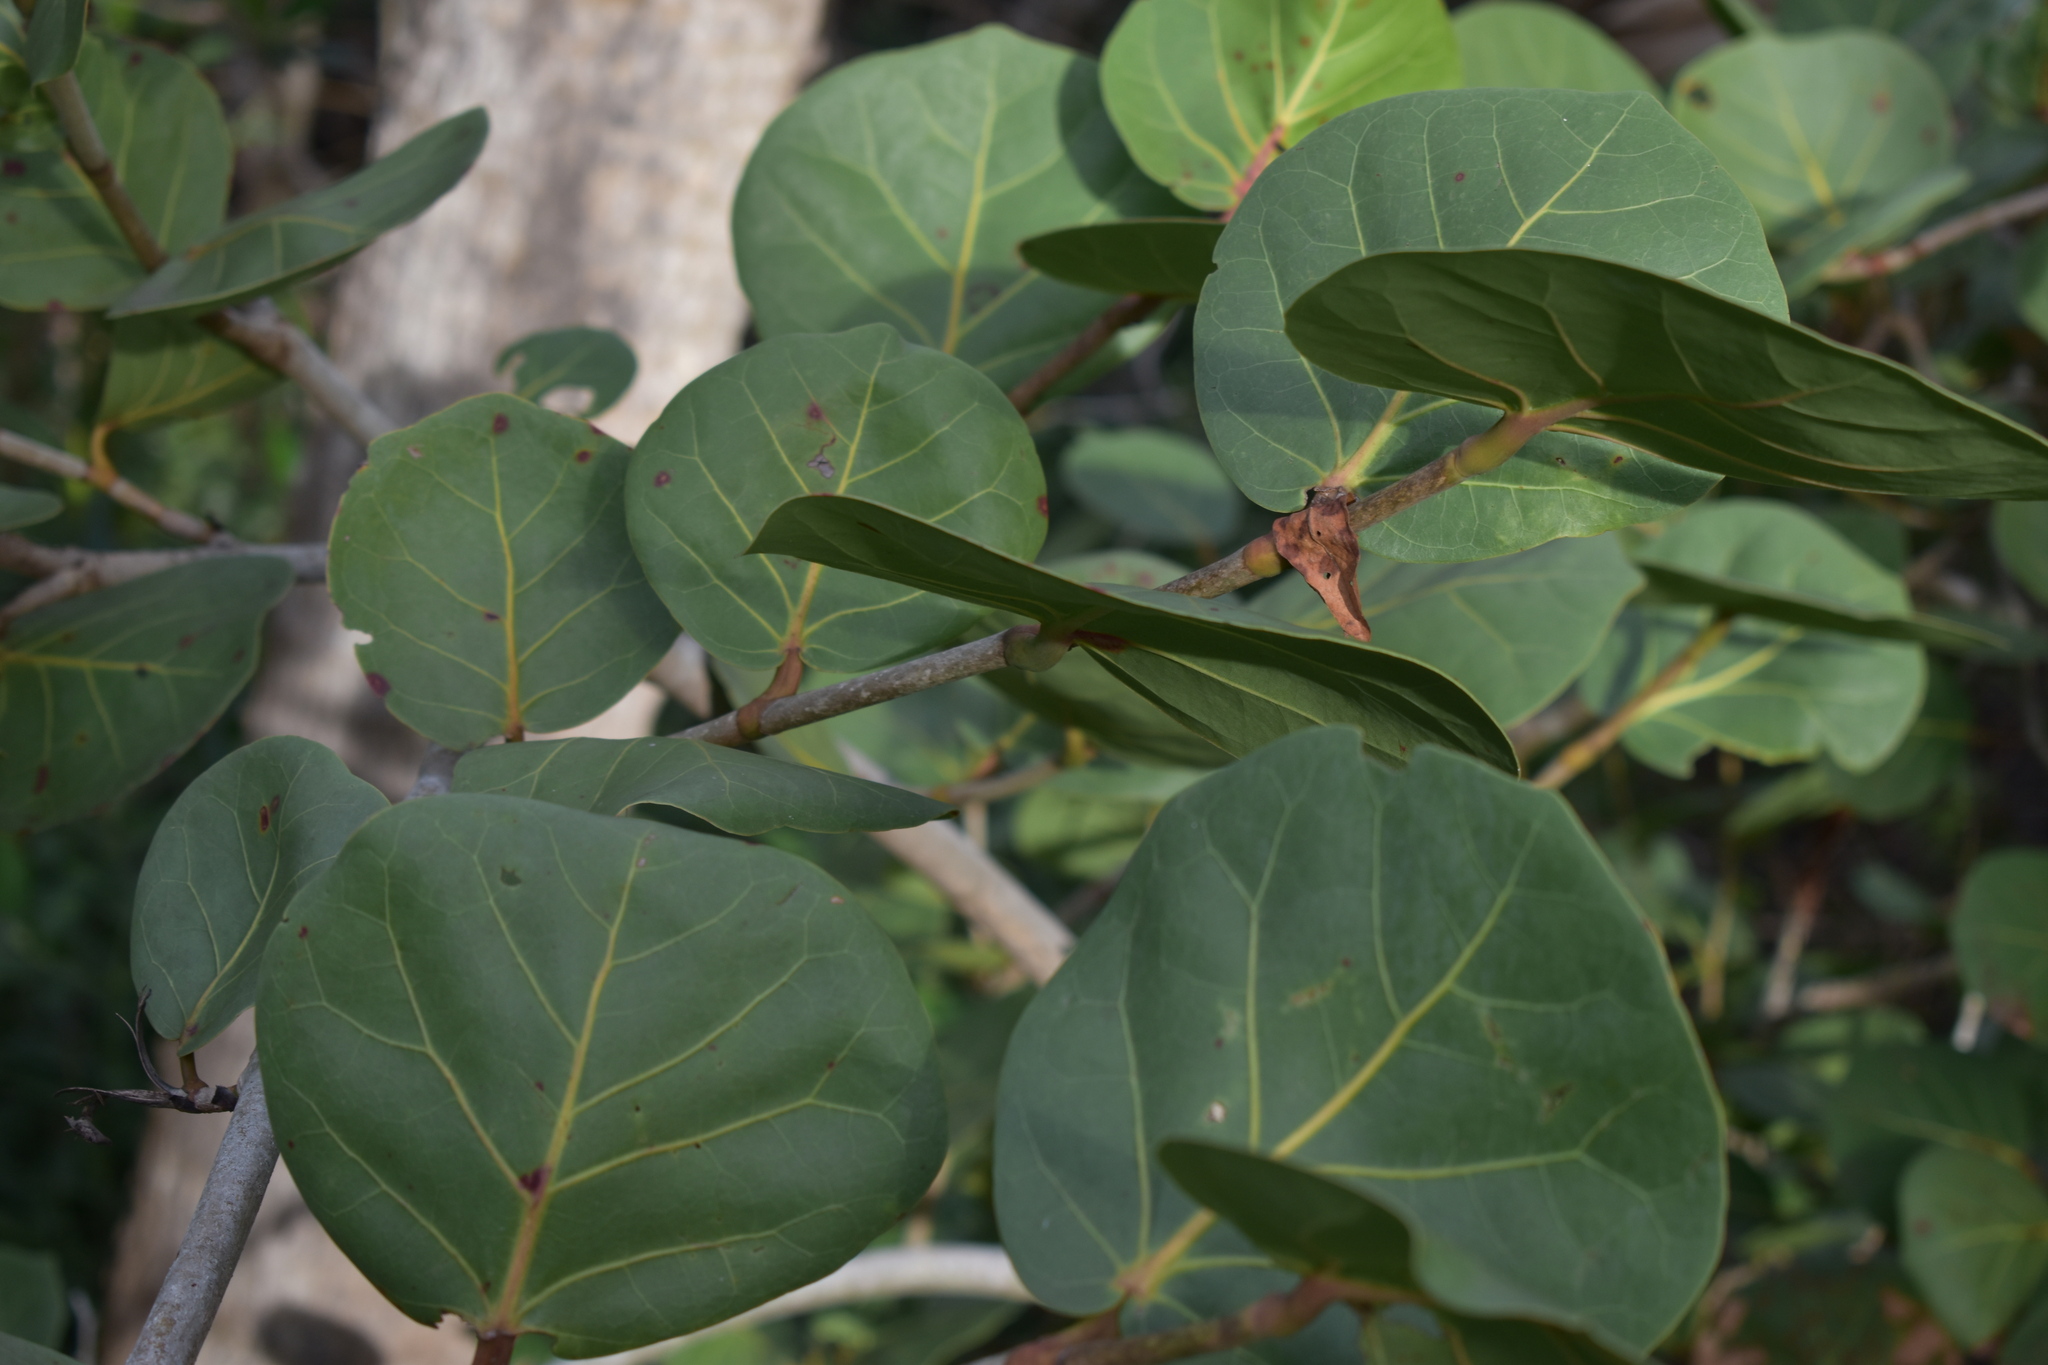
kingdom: Plantae
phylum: Tracheophyta
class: Magnoliopsida
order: Caryophyllales
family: Polygonaceae
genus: Coccoloba
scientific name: Coccoloba uvifera
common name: Seagrape
